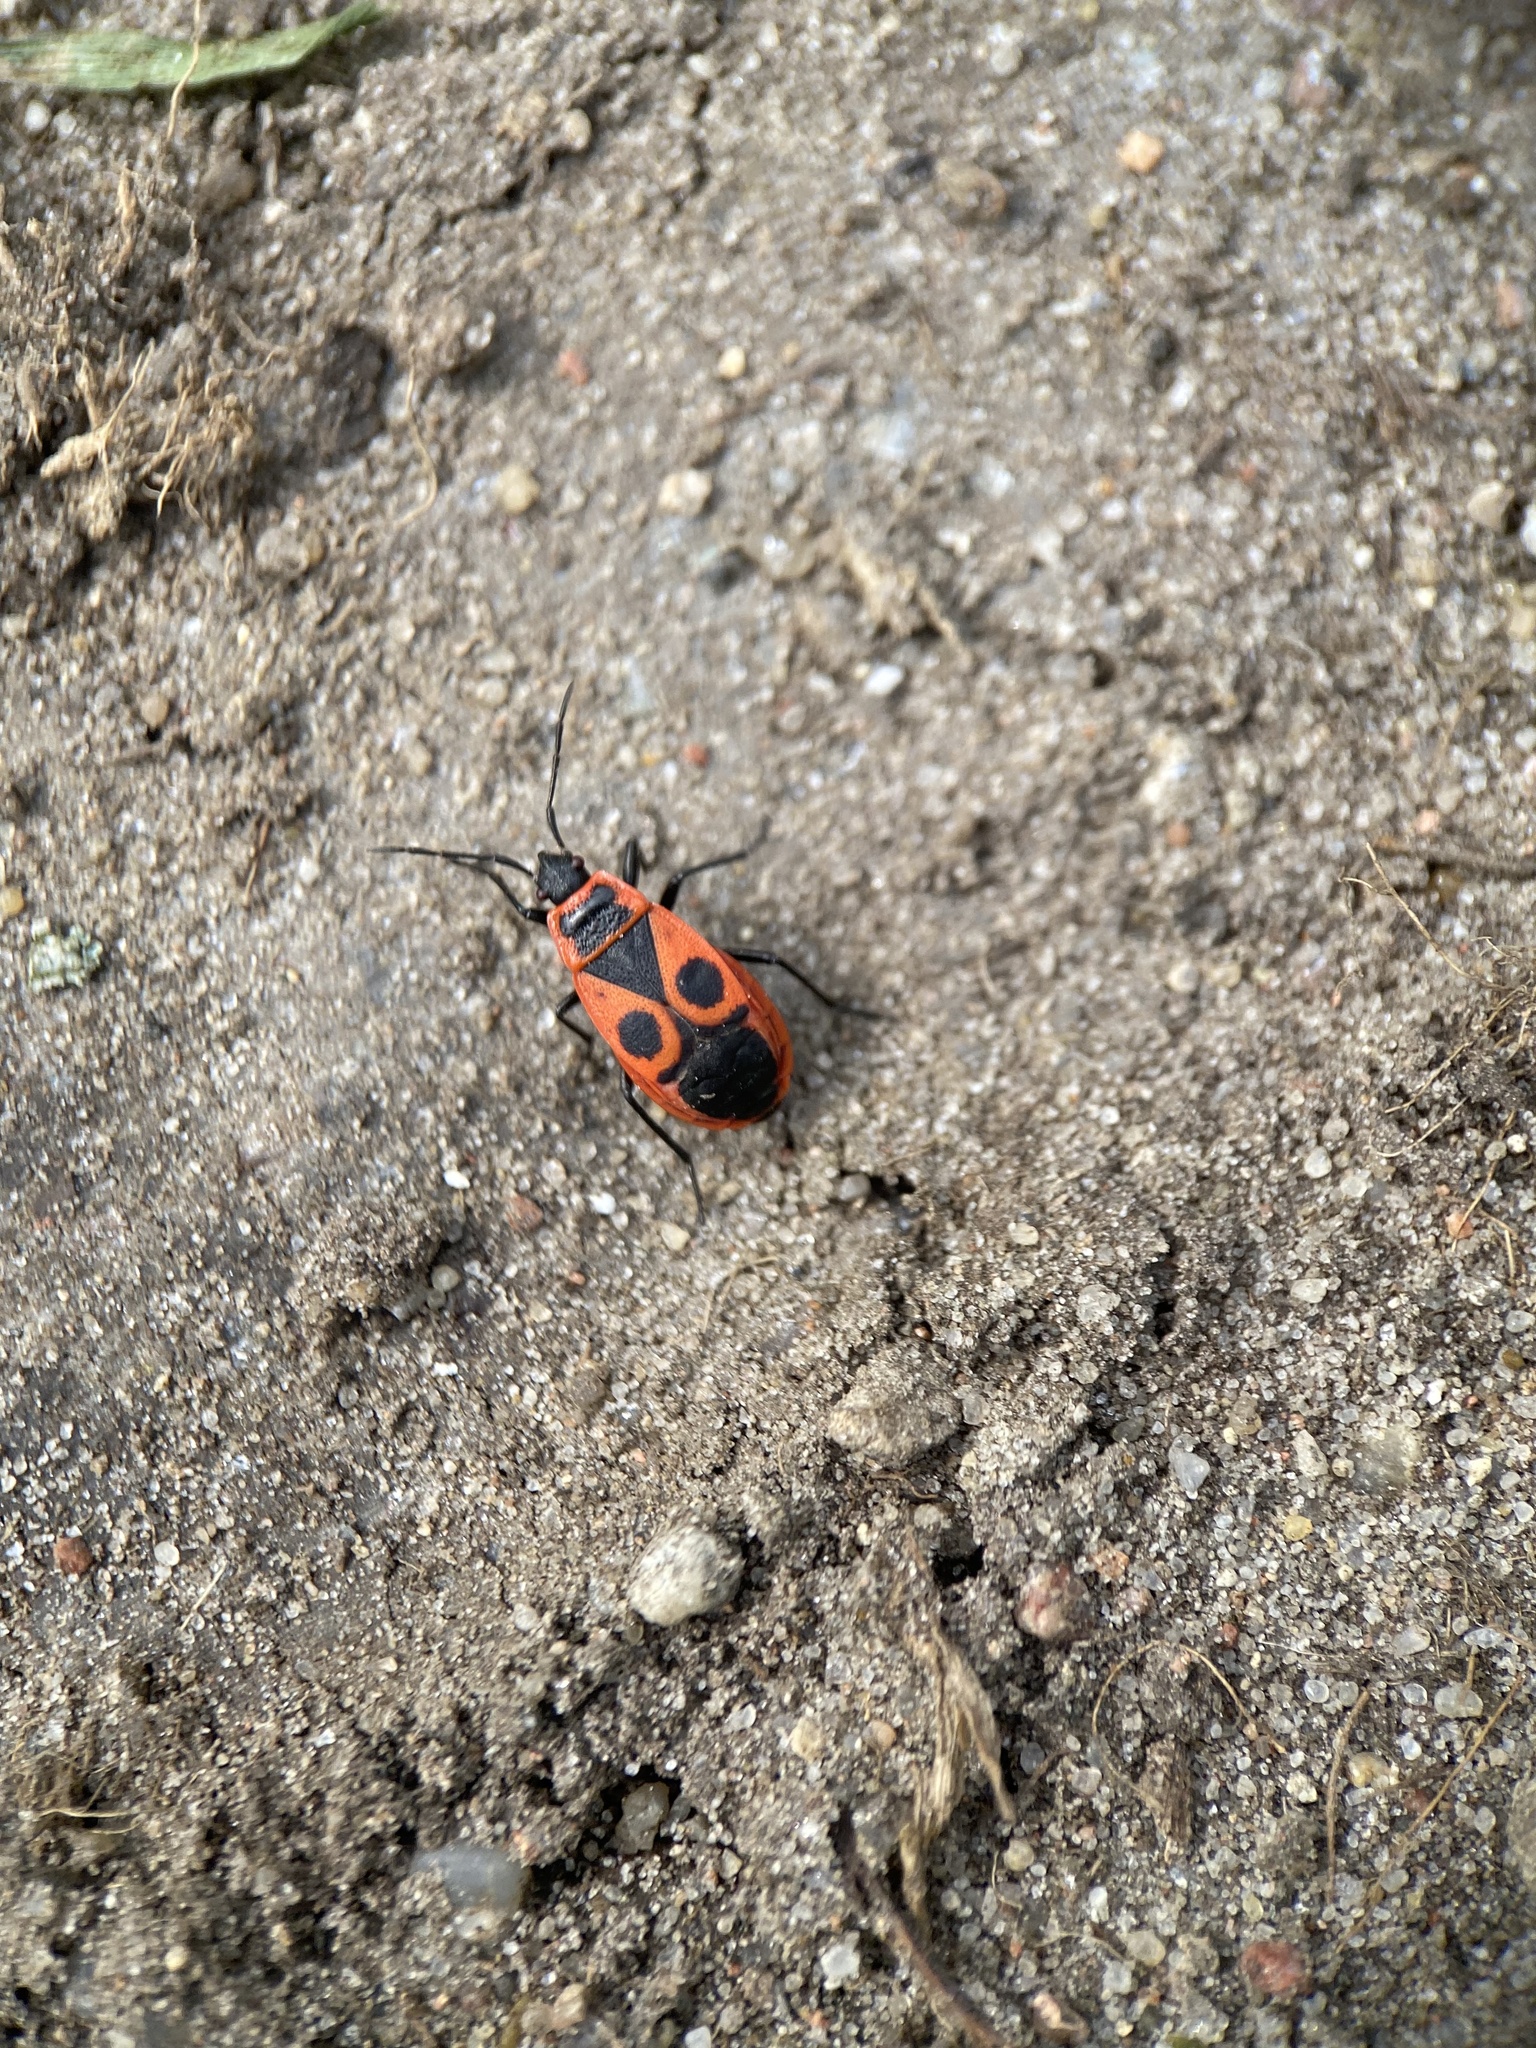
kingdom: Animalia
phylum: Arthropoda
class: Insecta
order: Hemiptera
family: Pyrrhocoridae
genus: Pyrrhocoris
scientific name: Pyrrhocoris apterus
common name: Firebug
